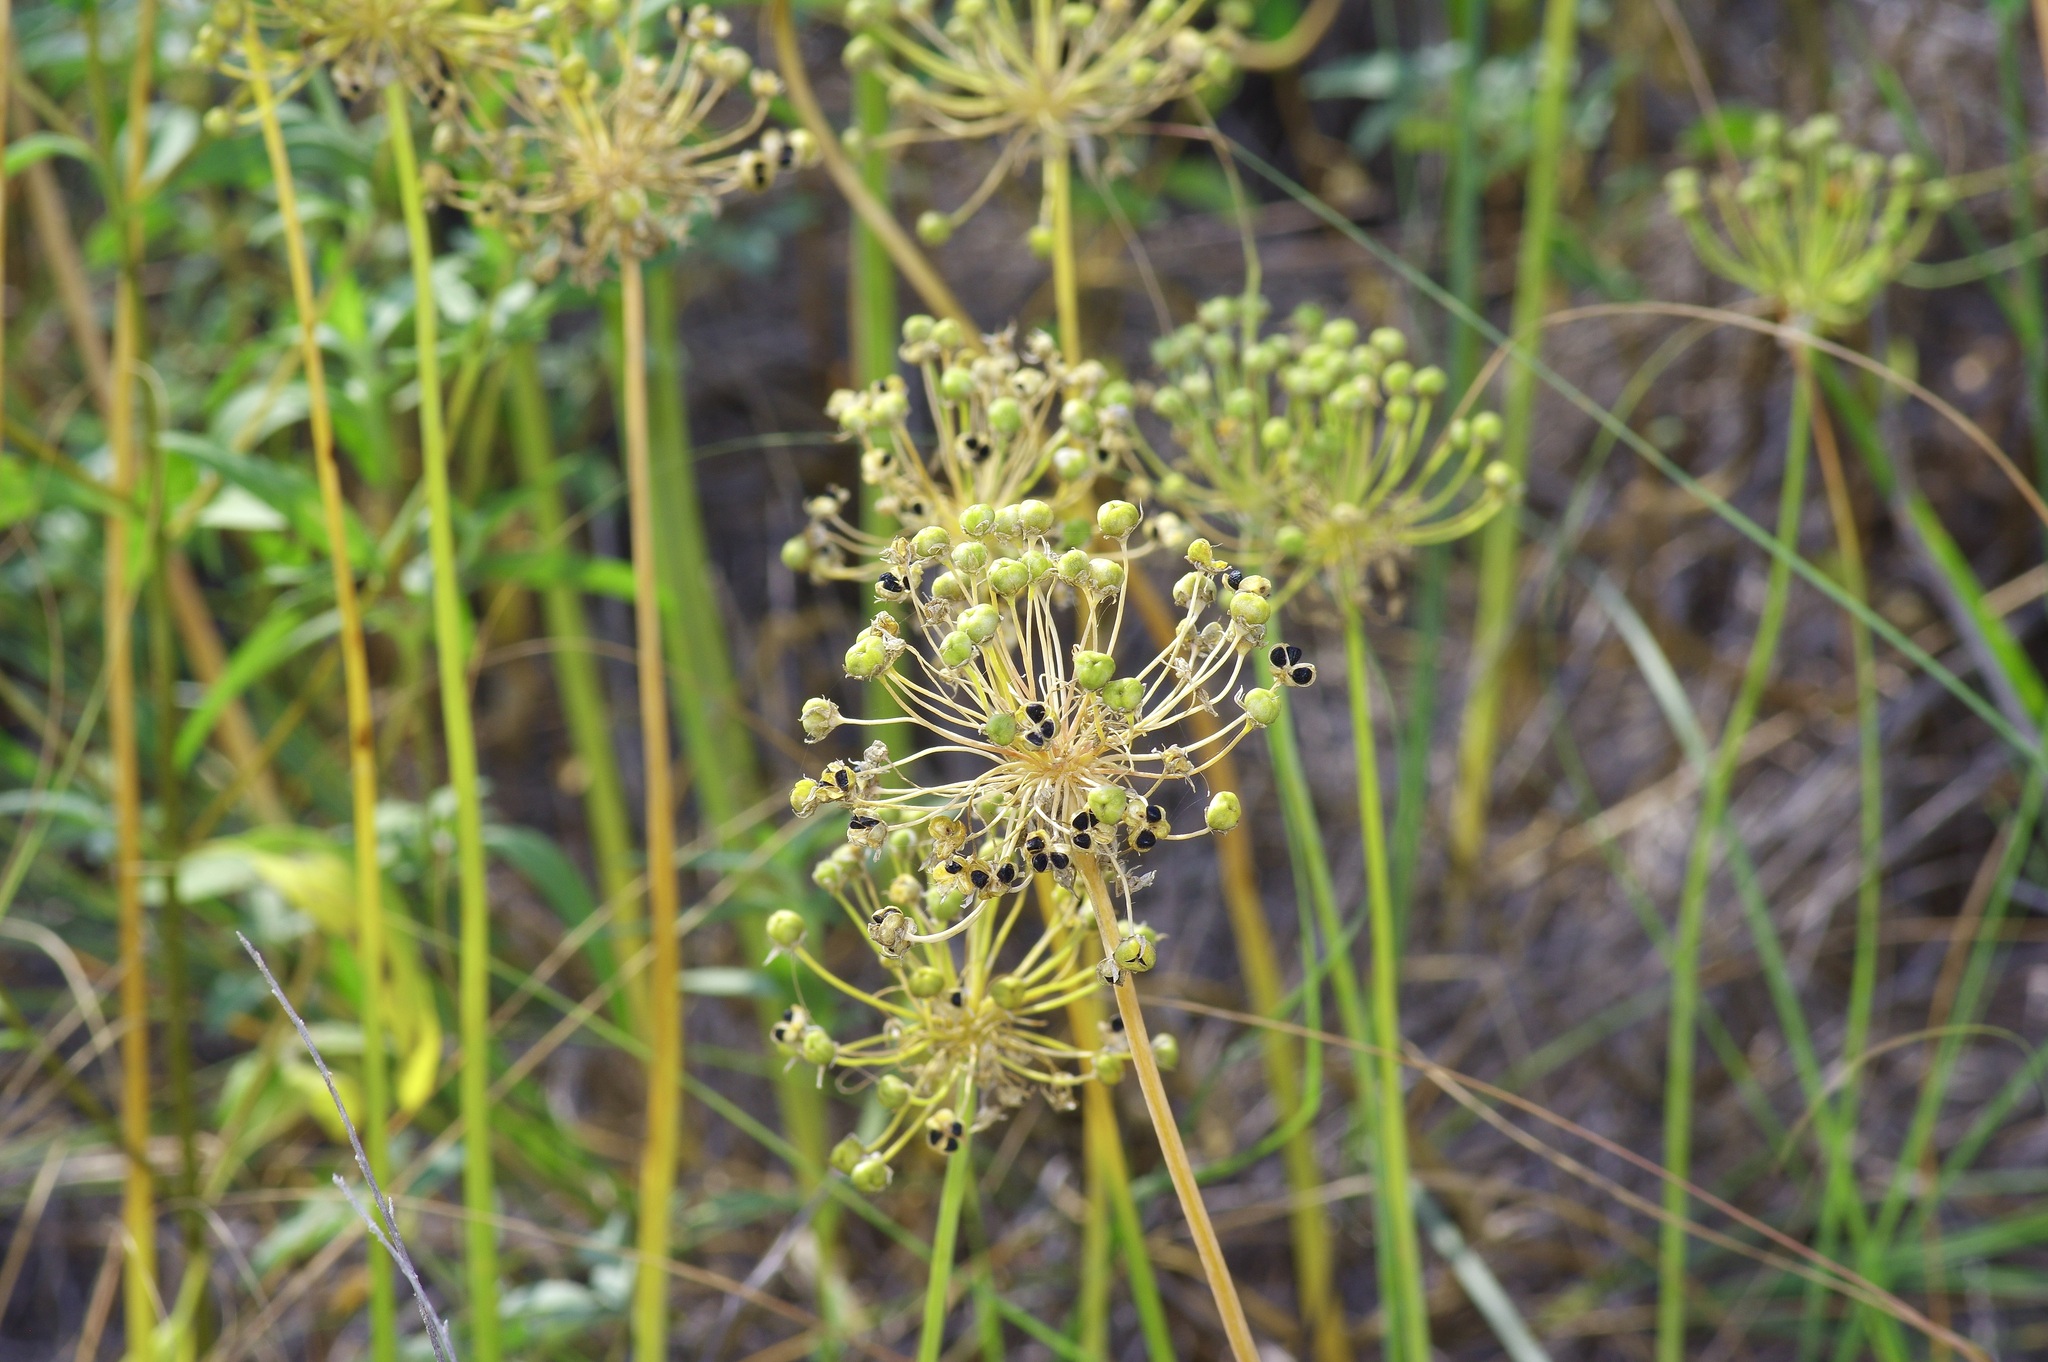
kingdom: Plantae
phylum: Tracheophyta
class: Liliopsida
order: Asparagales
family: Amaryllidaceae
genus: Allium
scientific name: Allium fraseri
